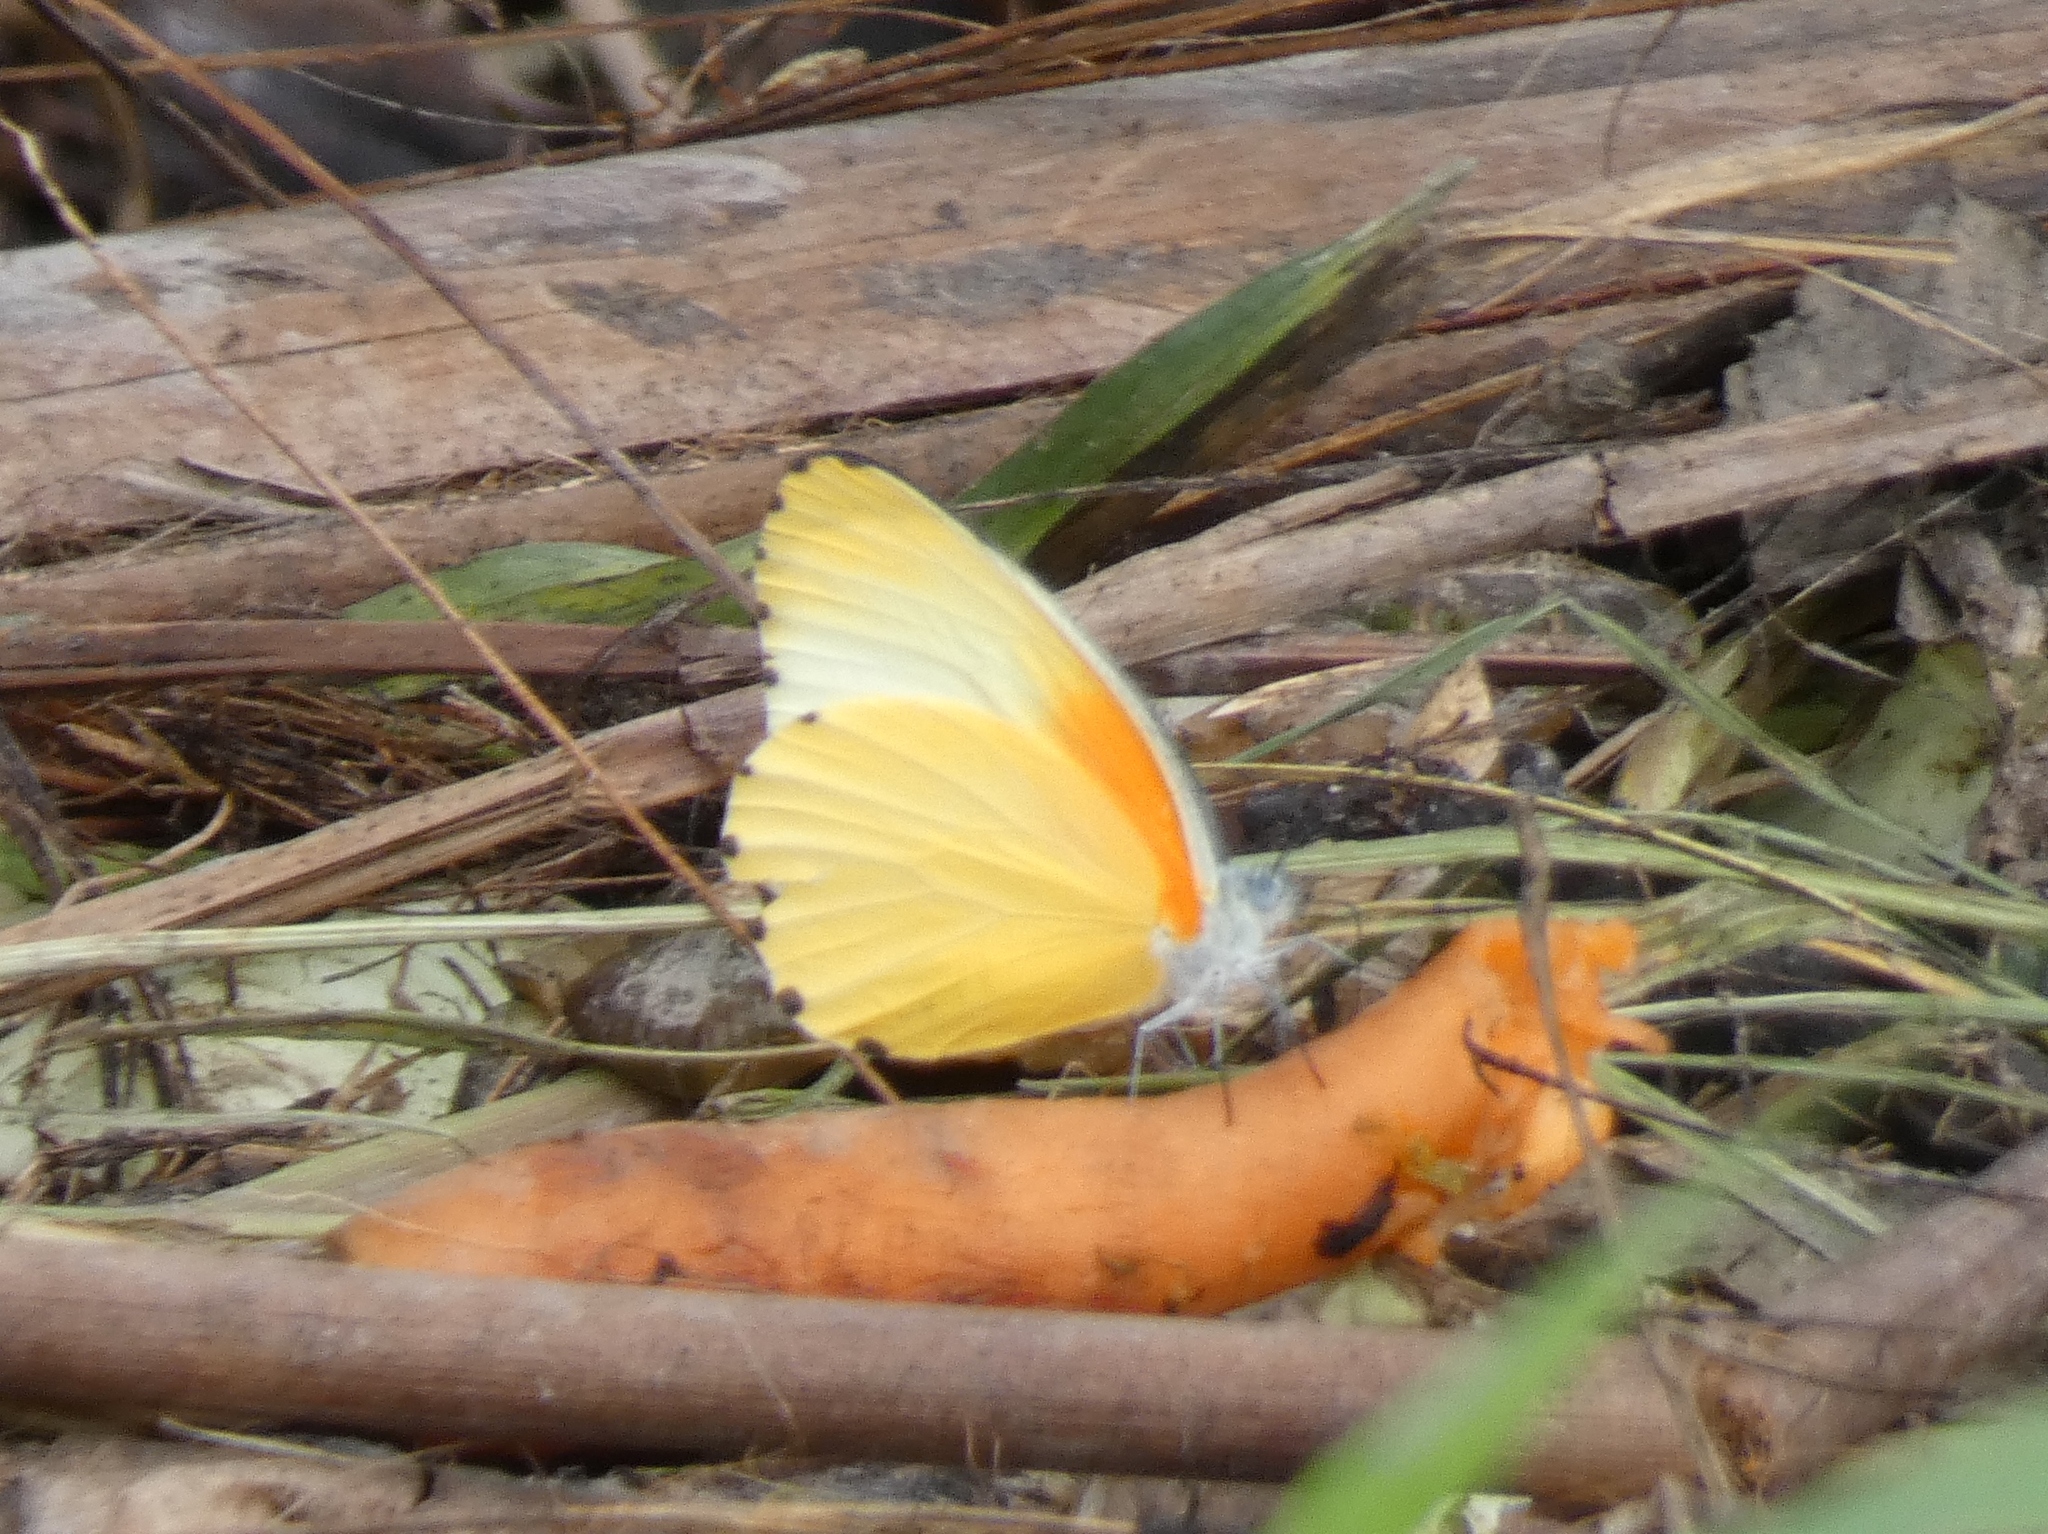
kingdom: Animalia
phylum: Arthropoda
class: Insecta
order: Lepidoptera
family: Pieridae
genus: Mylothris
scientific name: Mylothris agathina
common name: Eastern dotted border
